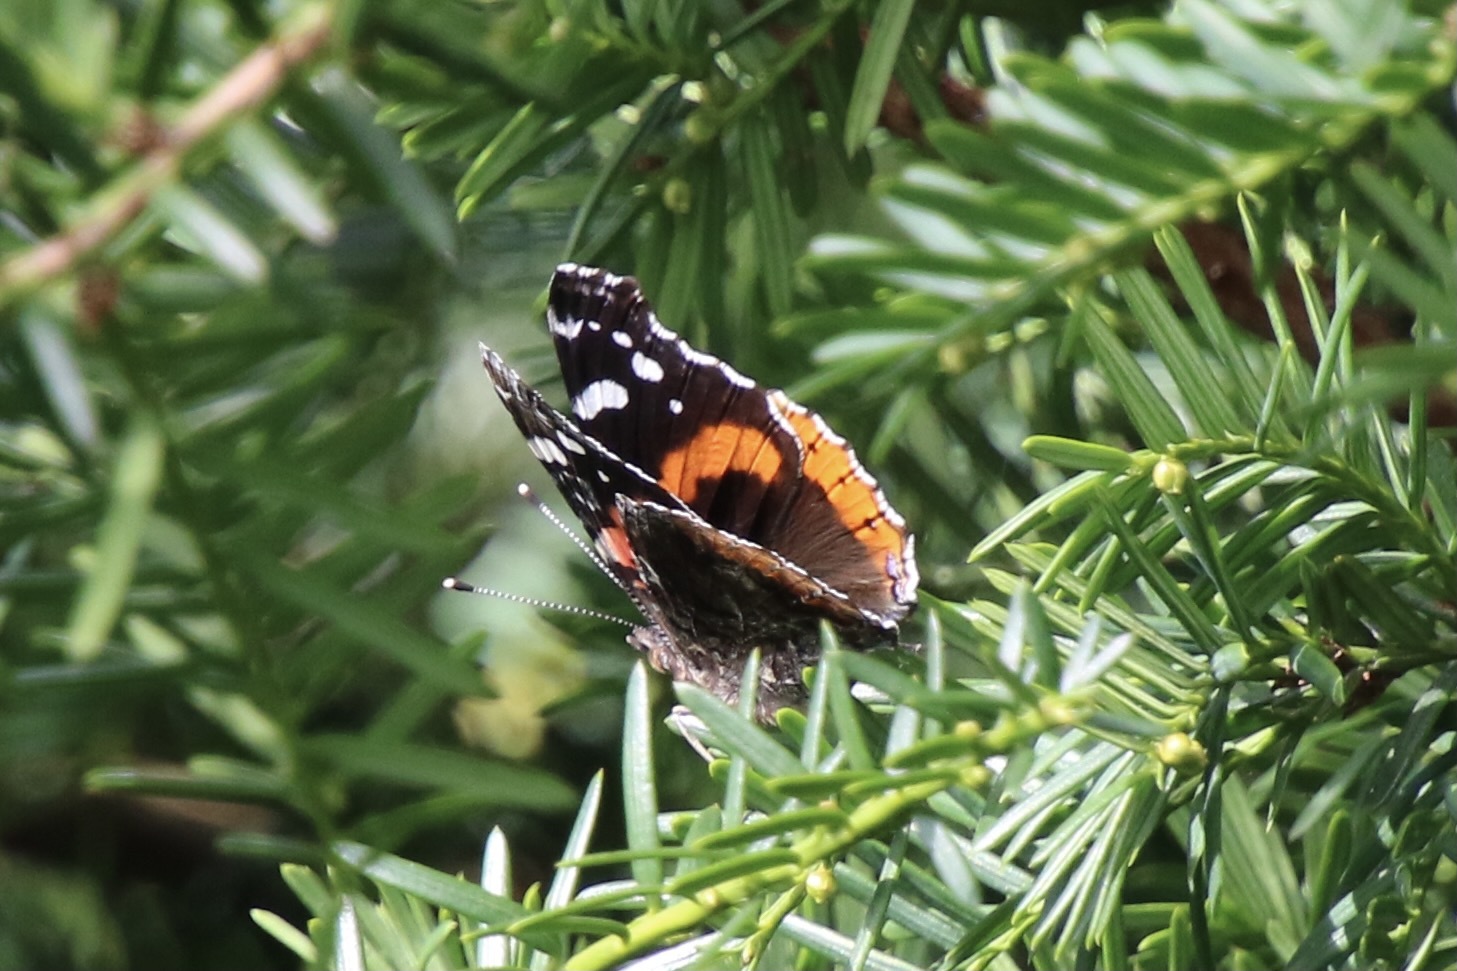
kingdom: Animalia
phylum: Arthropoda
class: Insecta
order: Lepidoptera
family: Nymphalidae
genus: Vanessa
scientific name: Vanessa atalanta
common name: Red admiral
